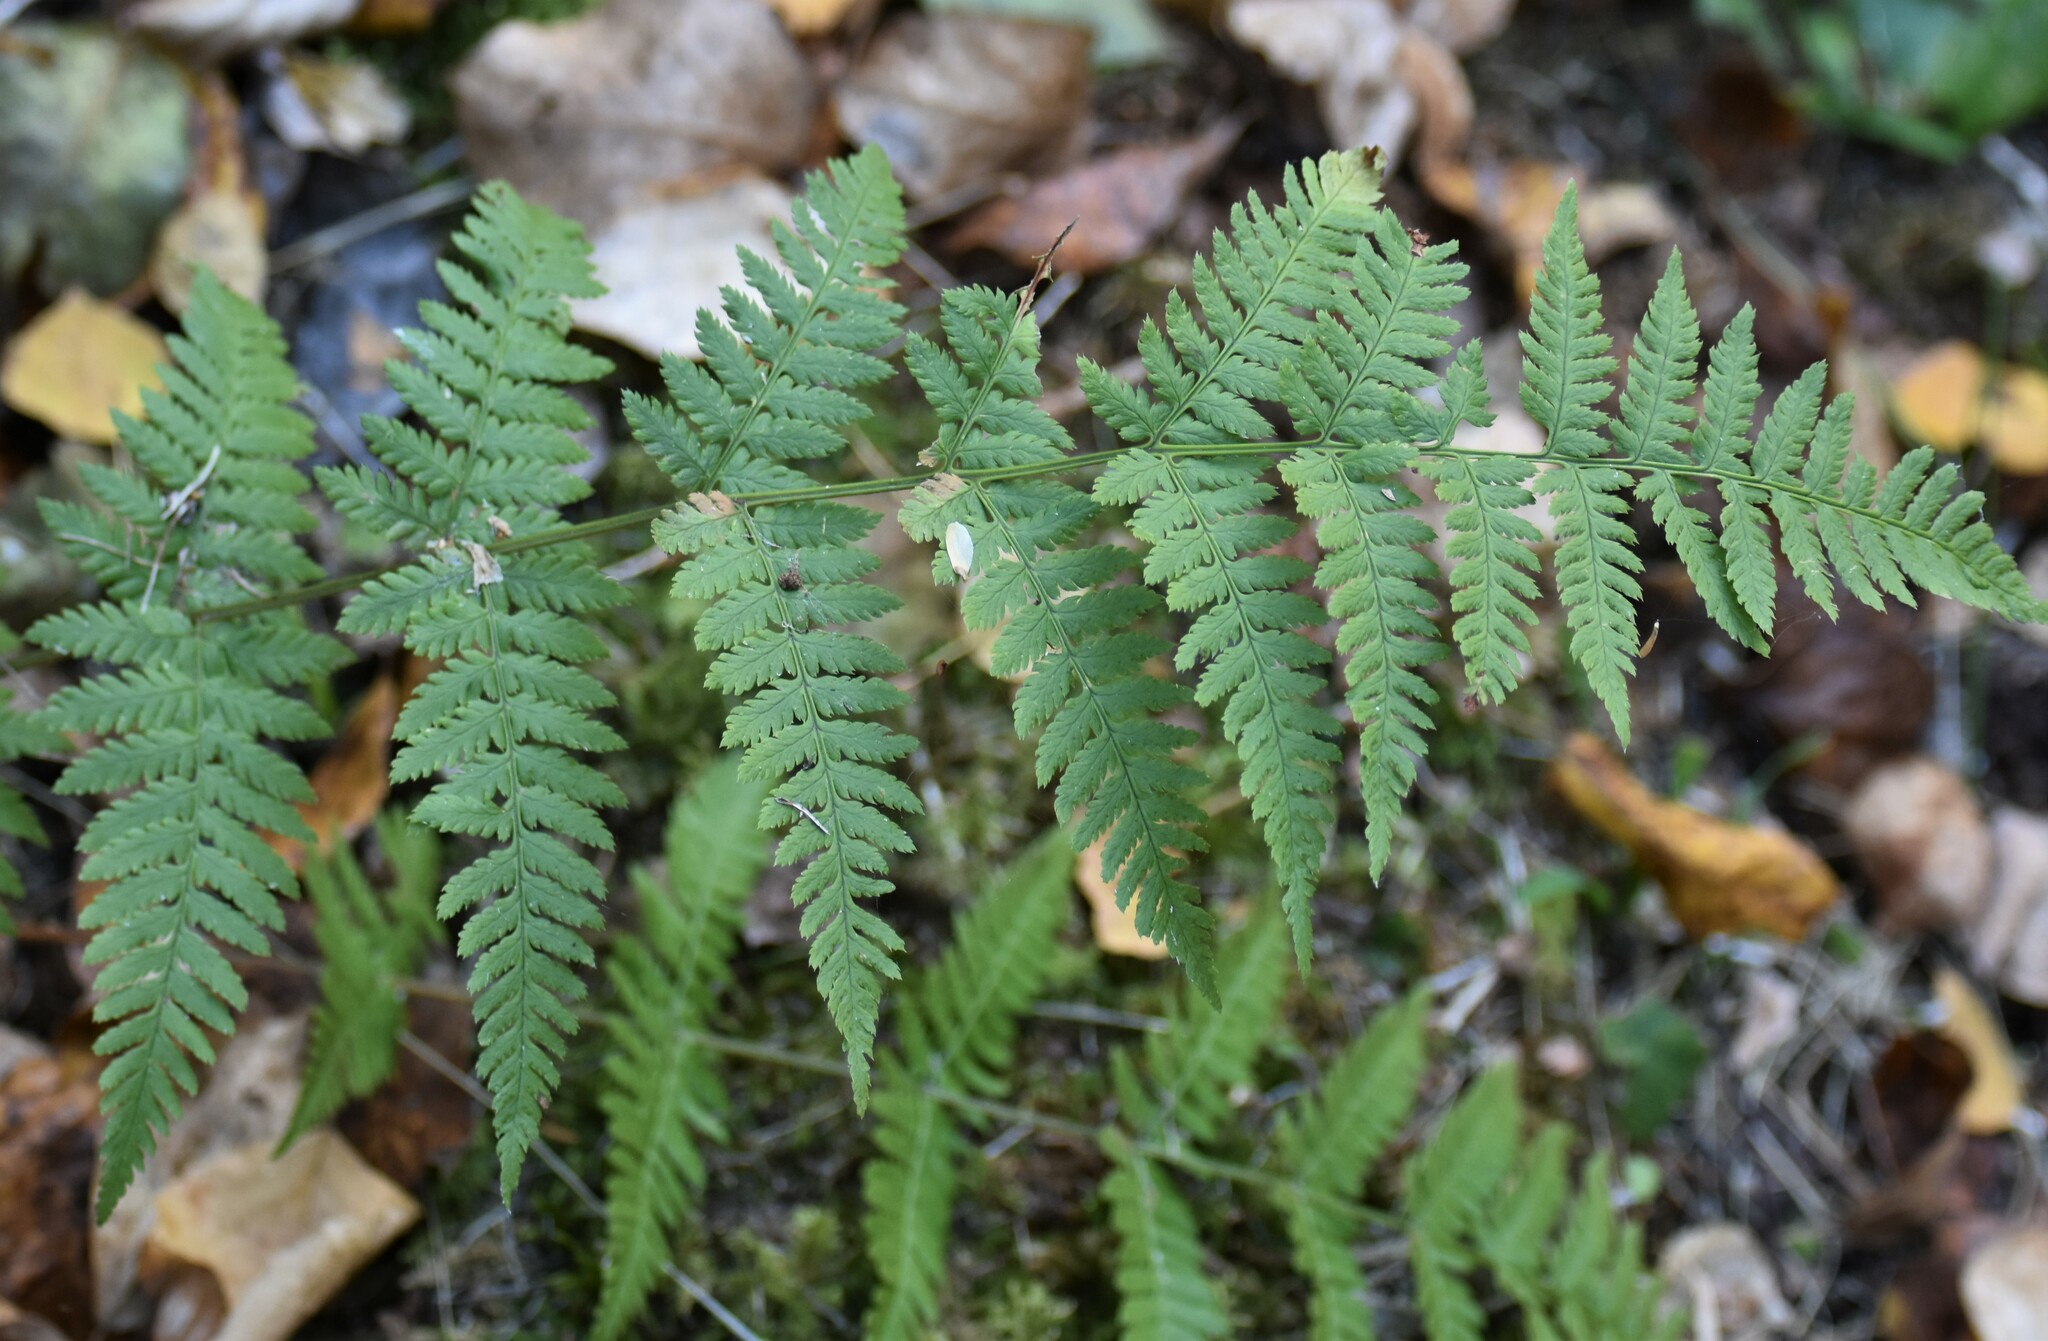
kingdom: Plantae
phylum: Tracheophyta
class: Polypodiopsida
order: Polypodiales
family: Dryopteridaceae
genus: Dryopteris
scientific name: Dryopteris carthusiana
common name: Narrow buckler-fern
